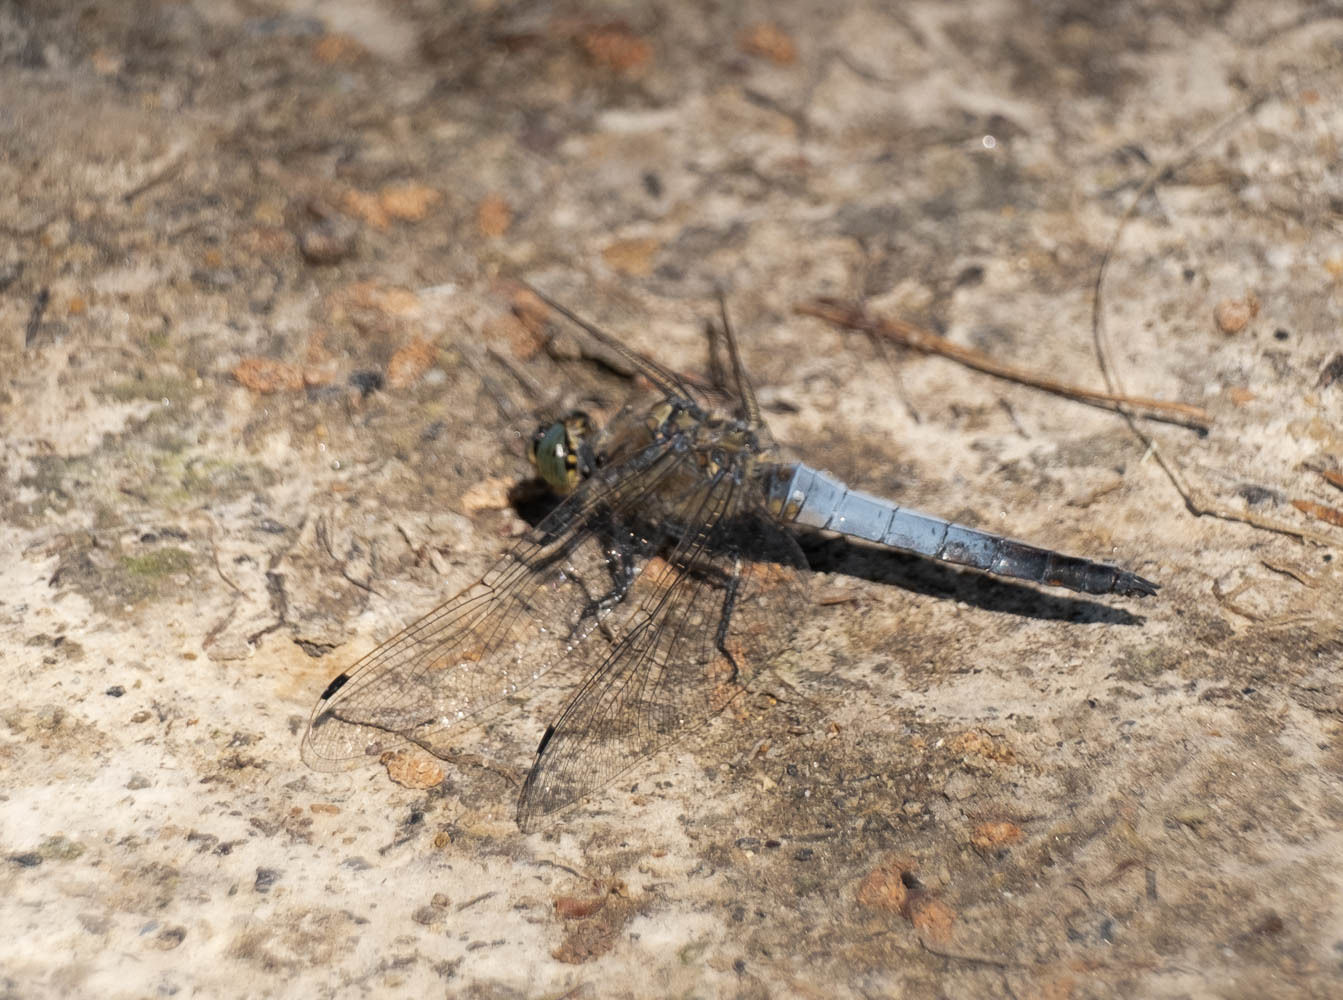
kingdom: Animalia
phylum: Arthropoda
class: Insecta
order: Odonata
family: Libellulidae
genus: Orthetrum
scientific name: Orthetrum cancellatum
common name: Black-tailed skimmer
